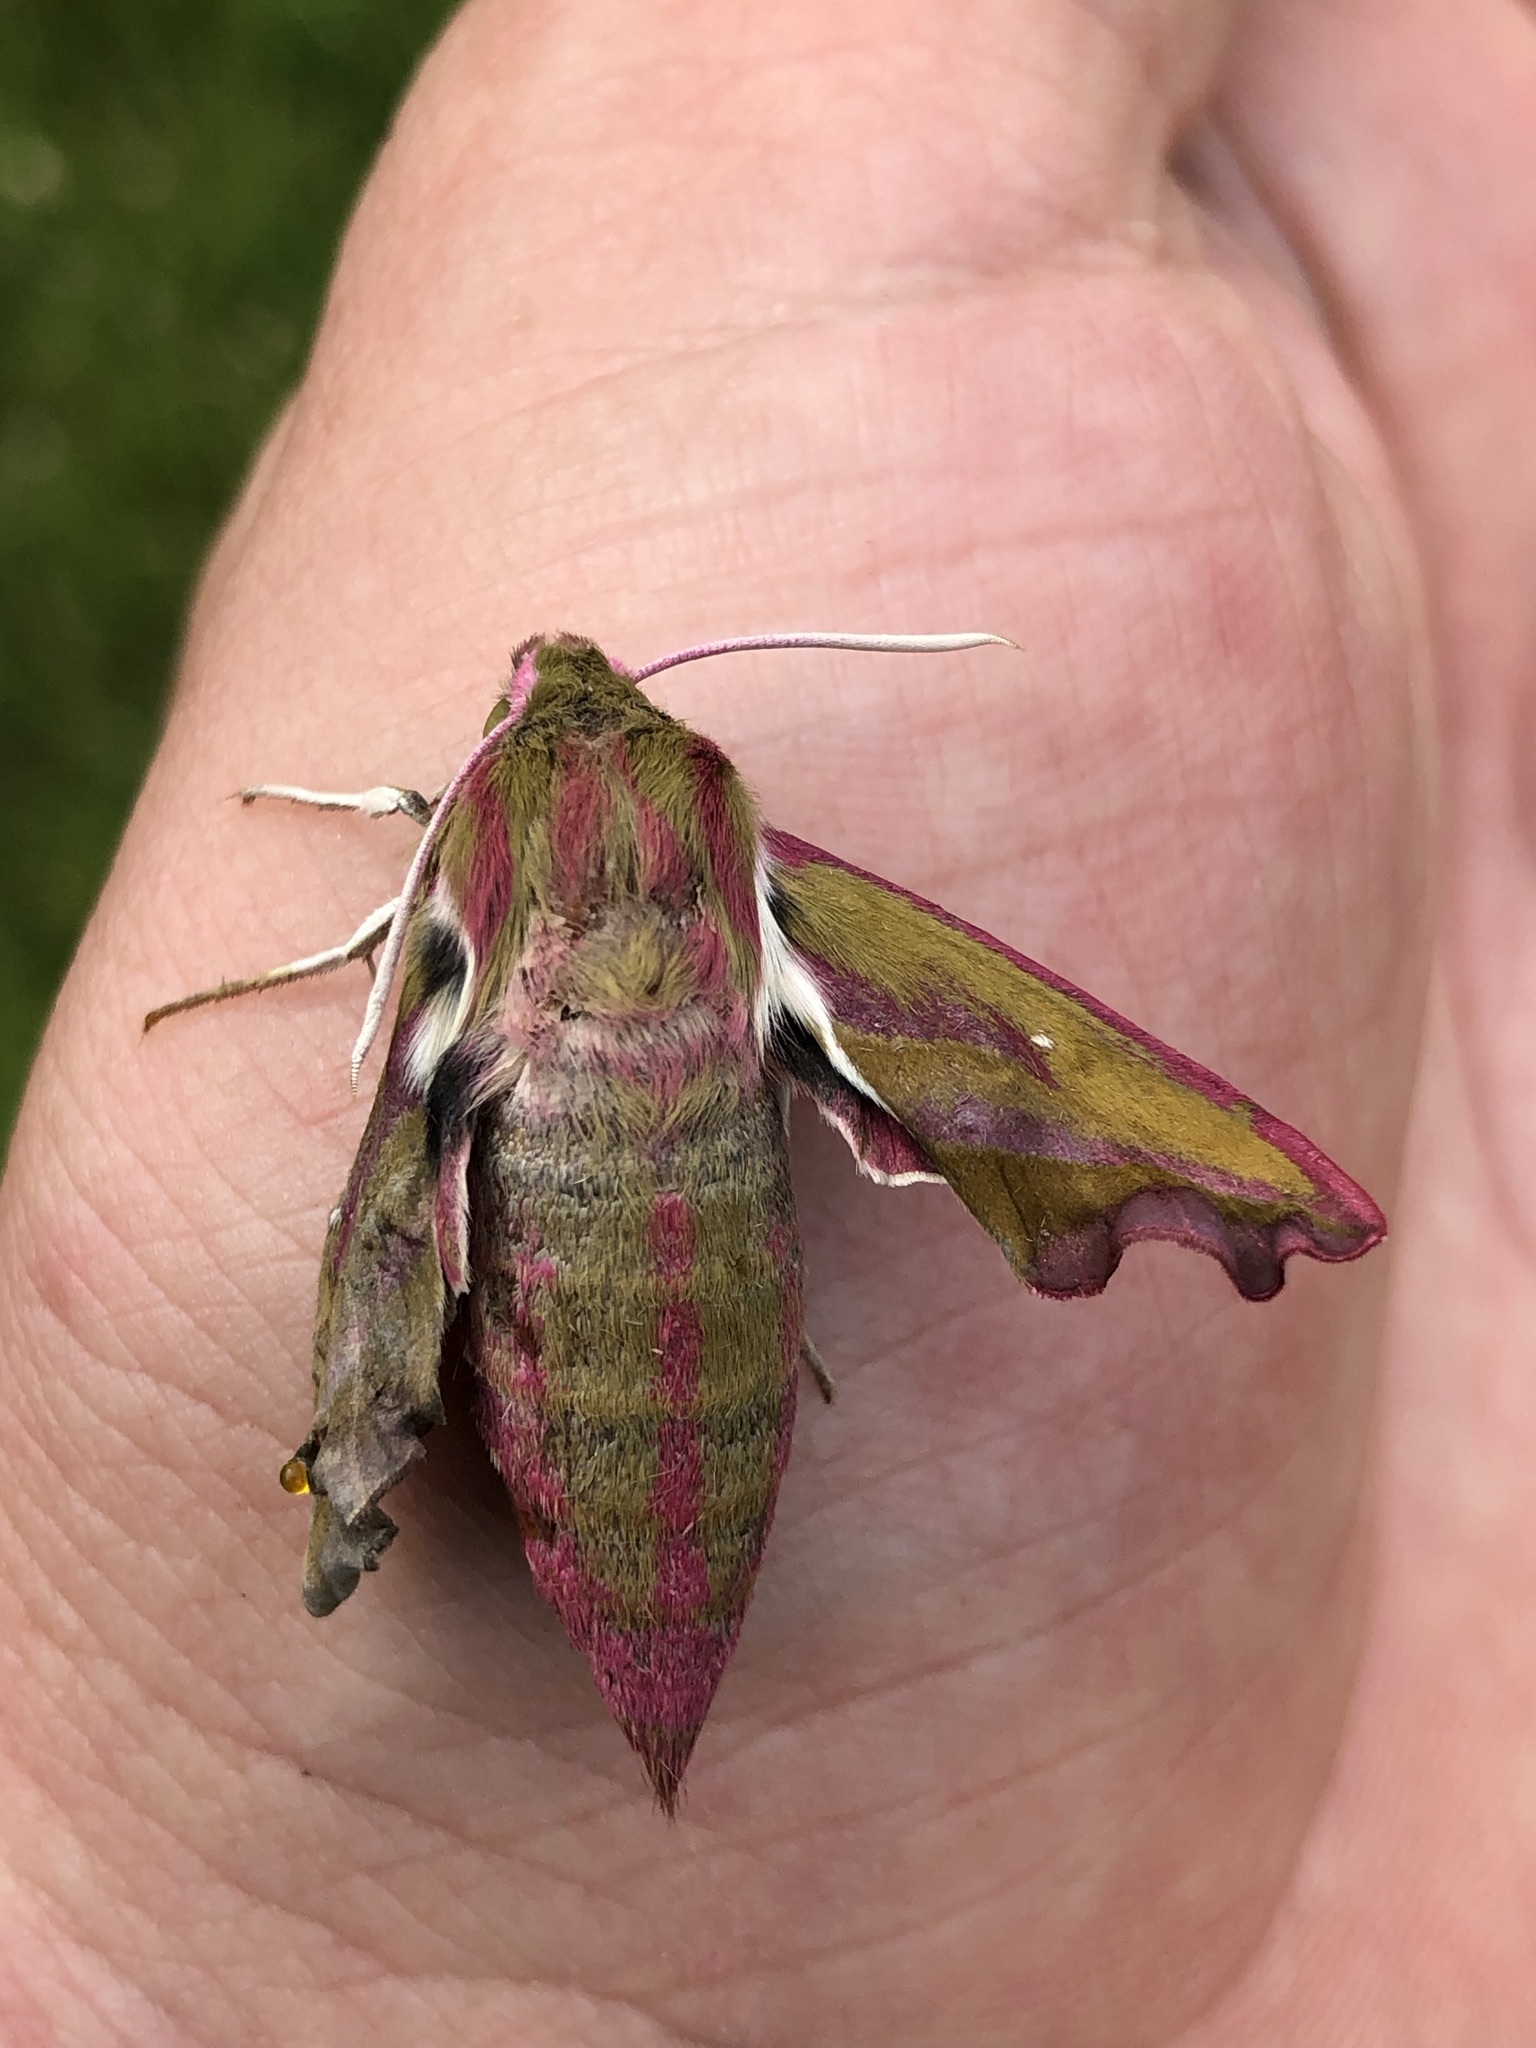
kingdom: Animalia
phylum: Arthropoda
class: Insecta
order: Lepidoptera
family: Sphingidae
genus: Deilephila
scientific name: Deilephila elpenor
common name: Elephant hawk-moth
